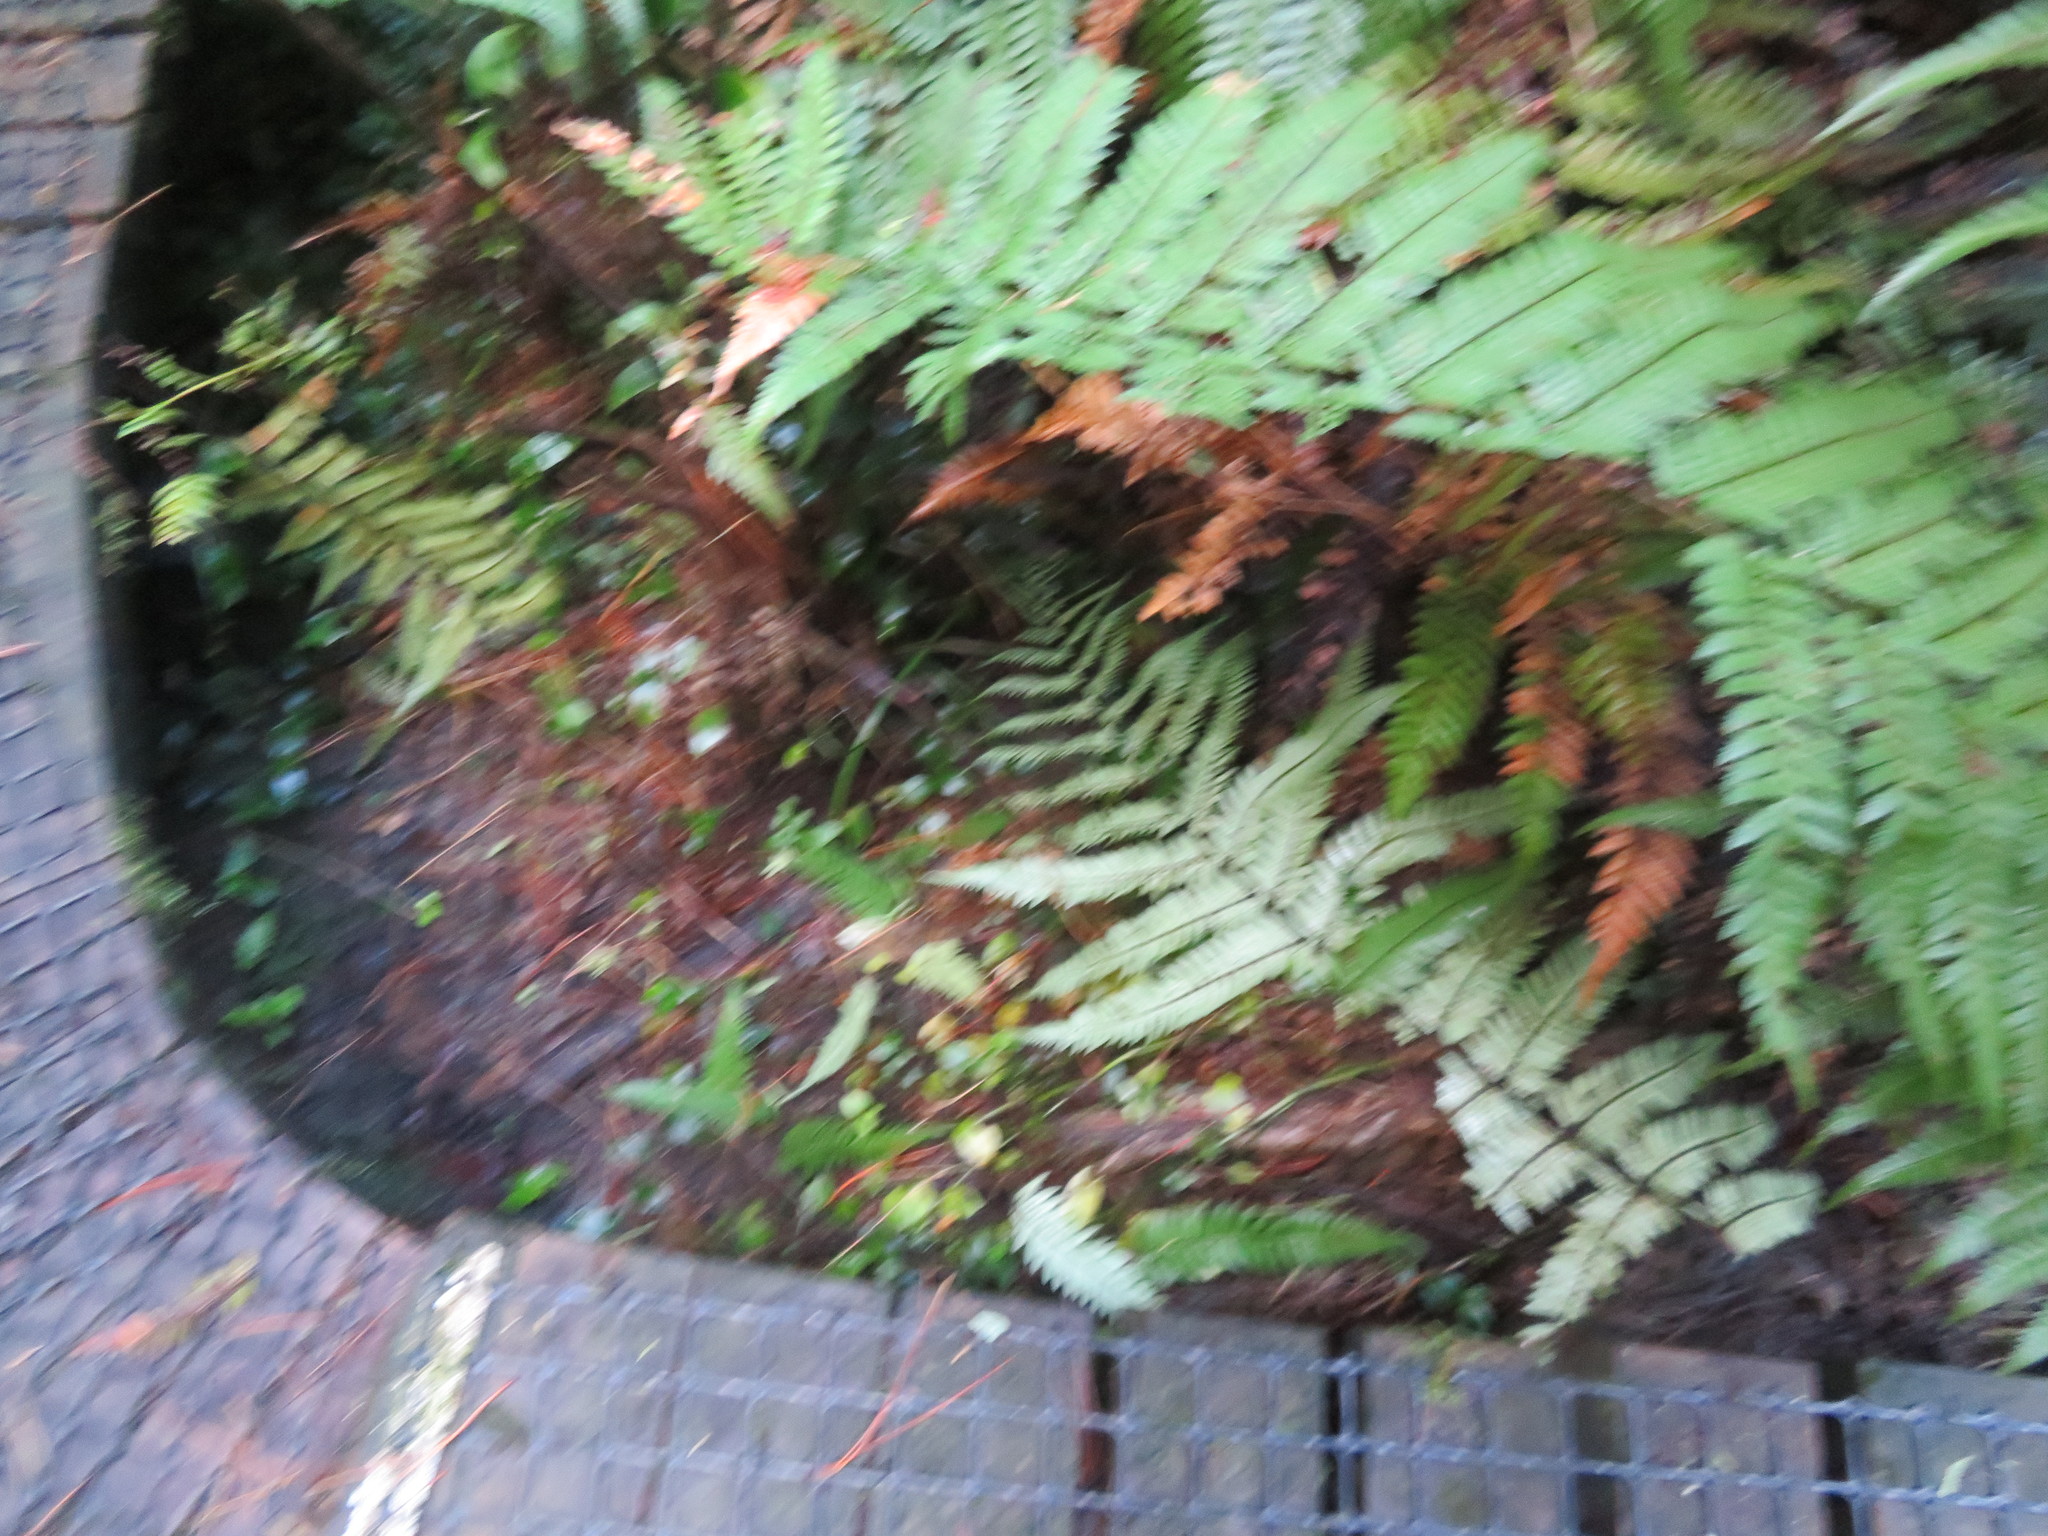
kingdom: Plantae
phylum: Tracheophyta
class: Liliopsida
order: Commelinales
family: Commelinaceae
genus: Tradescantia
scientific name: Tradescantia fluminensis
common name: Wandering-jew
